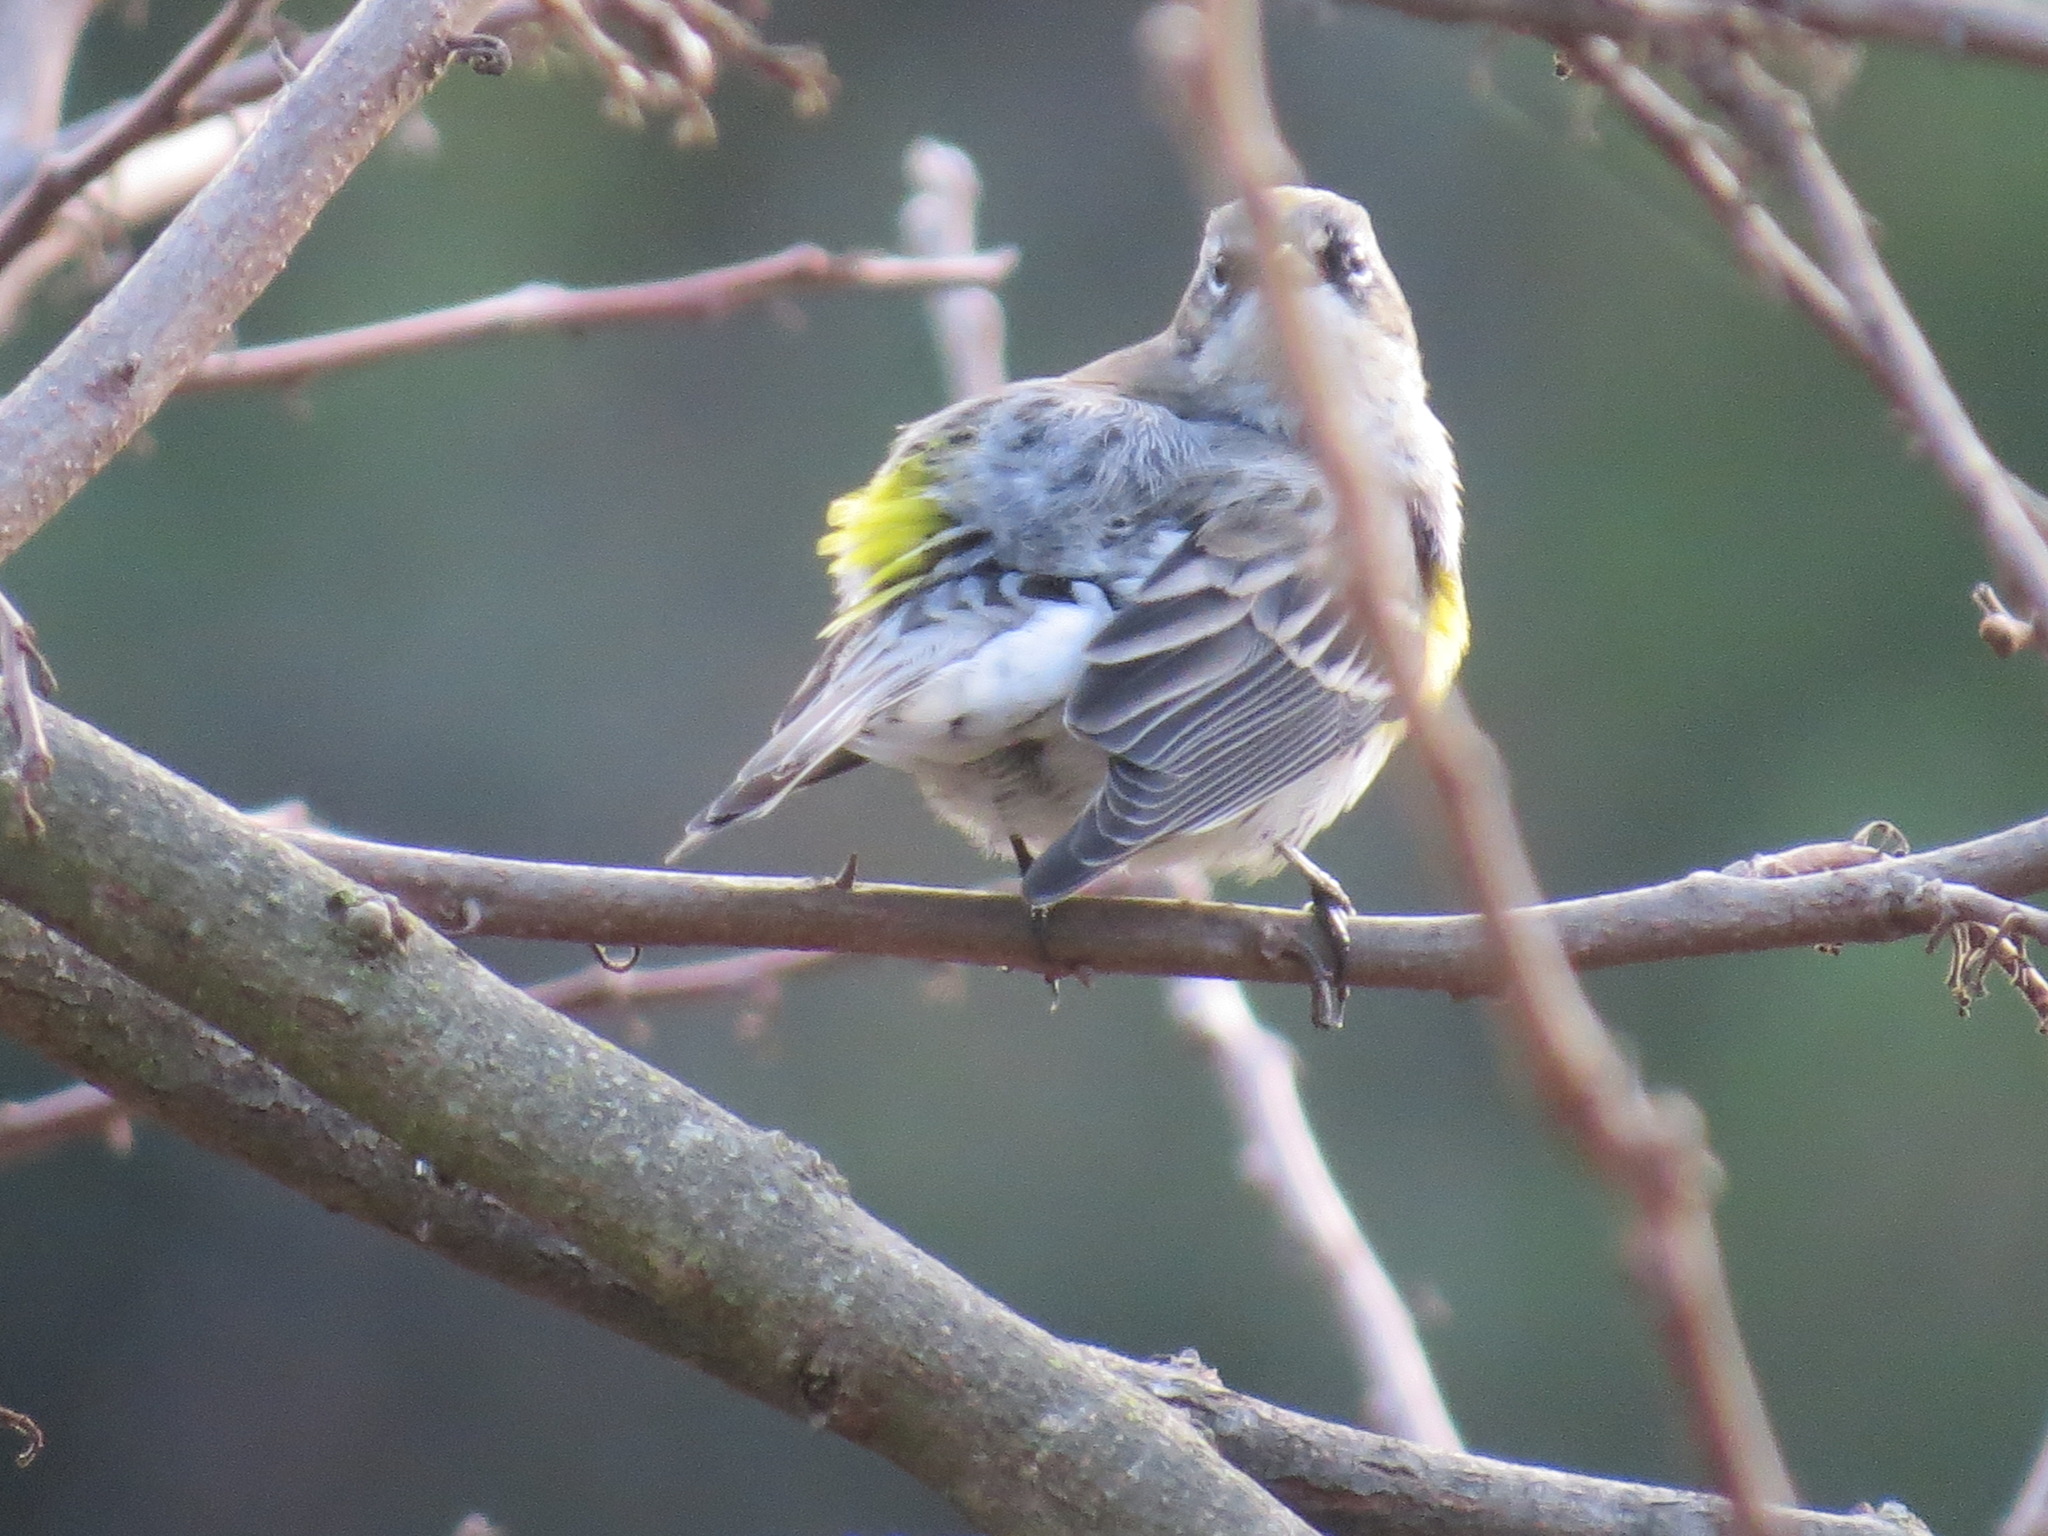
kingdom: Animalia
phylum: Chordata
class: Aves
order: Passeriformes
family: Parulidae
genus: Setophaga
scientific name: Setophaga coronata
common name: Myrtle warbler
